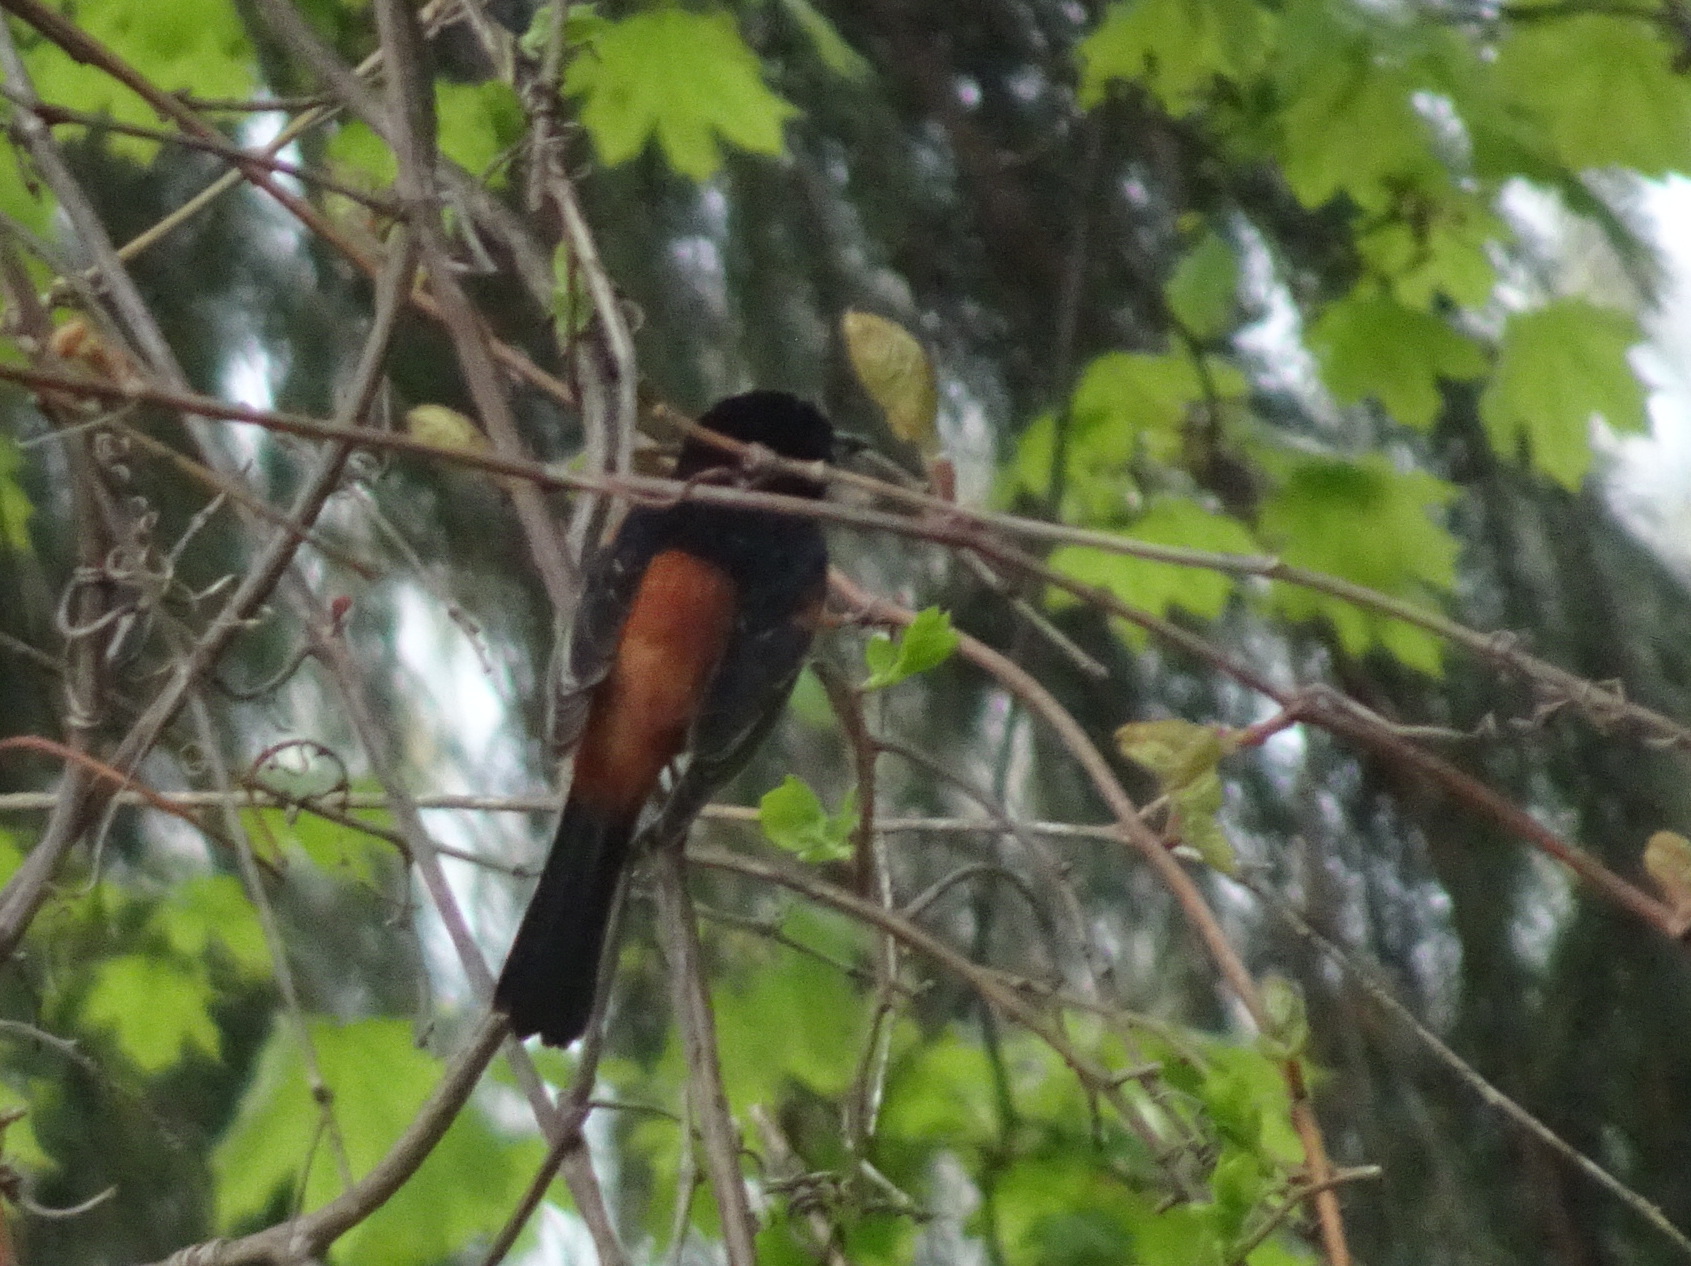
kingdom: Animalia
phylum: Chordata
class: Aves
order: Passeriformes
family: Icteridae
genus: Icterus
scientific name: Icterus spurius
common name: Orchard oriole
